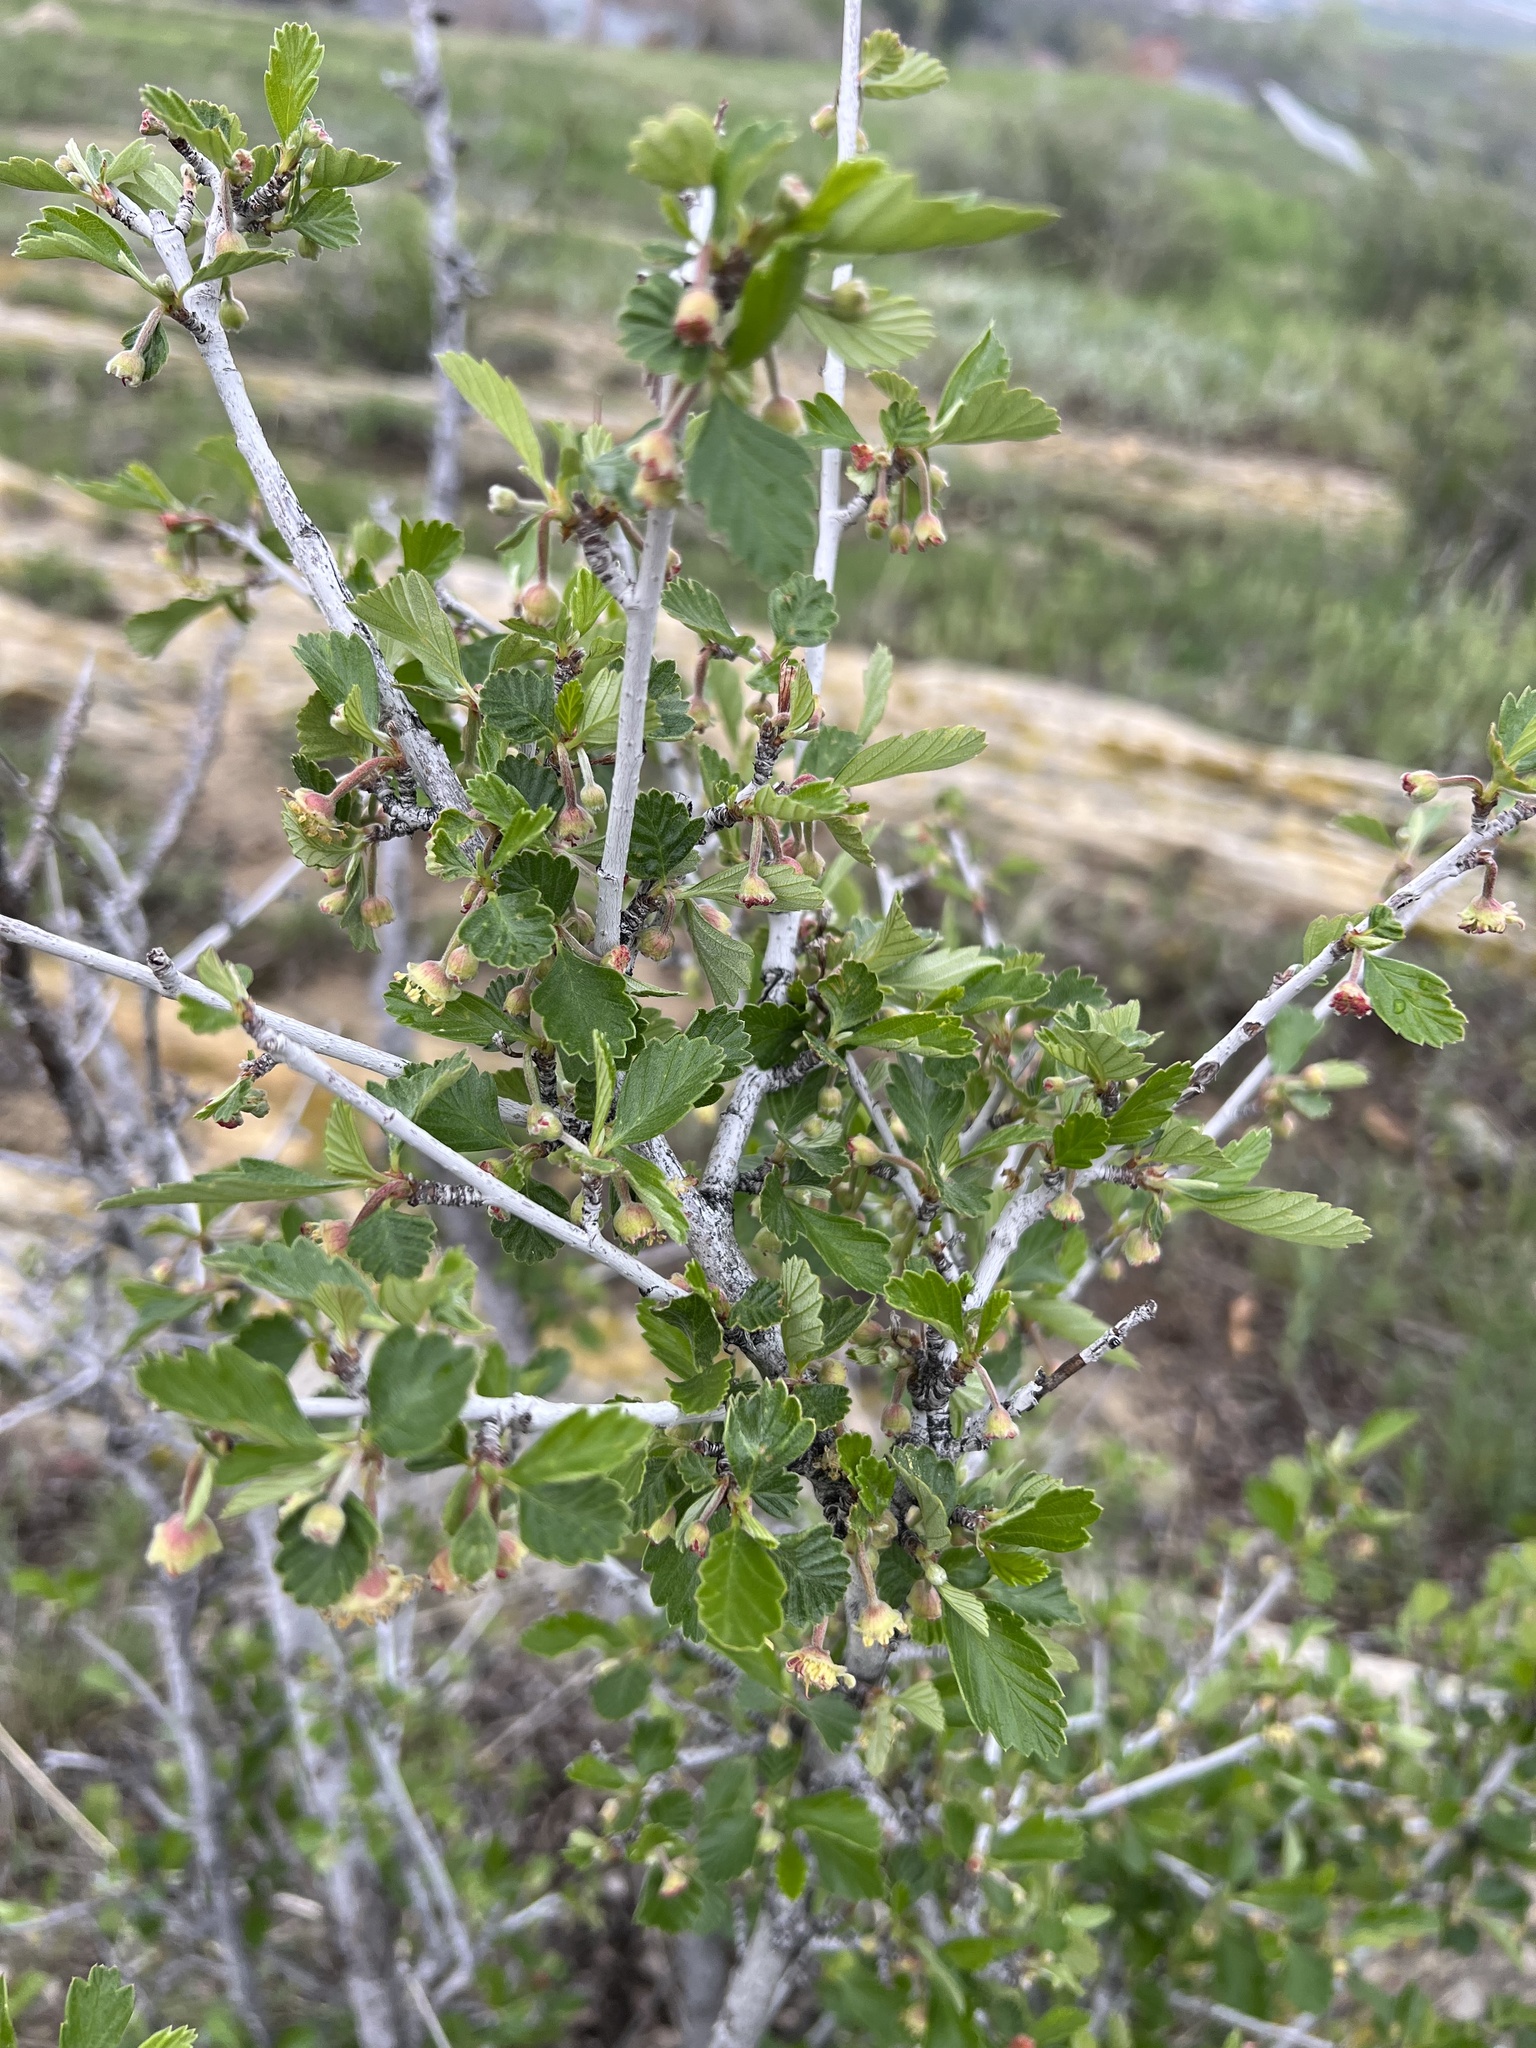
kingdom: Plantae
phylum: Tracheophyta
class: Magnoliopsida
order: Rosales
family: Rosaceae
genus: Cercocarpus
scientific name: Cercocarpus montanus
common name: Alder-leaf cercocarpus
